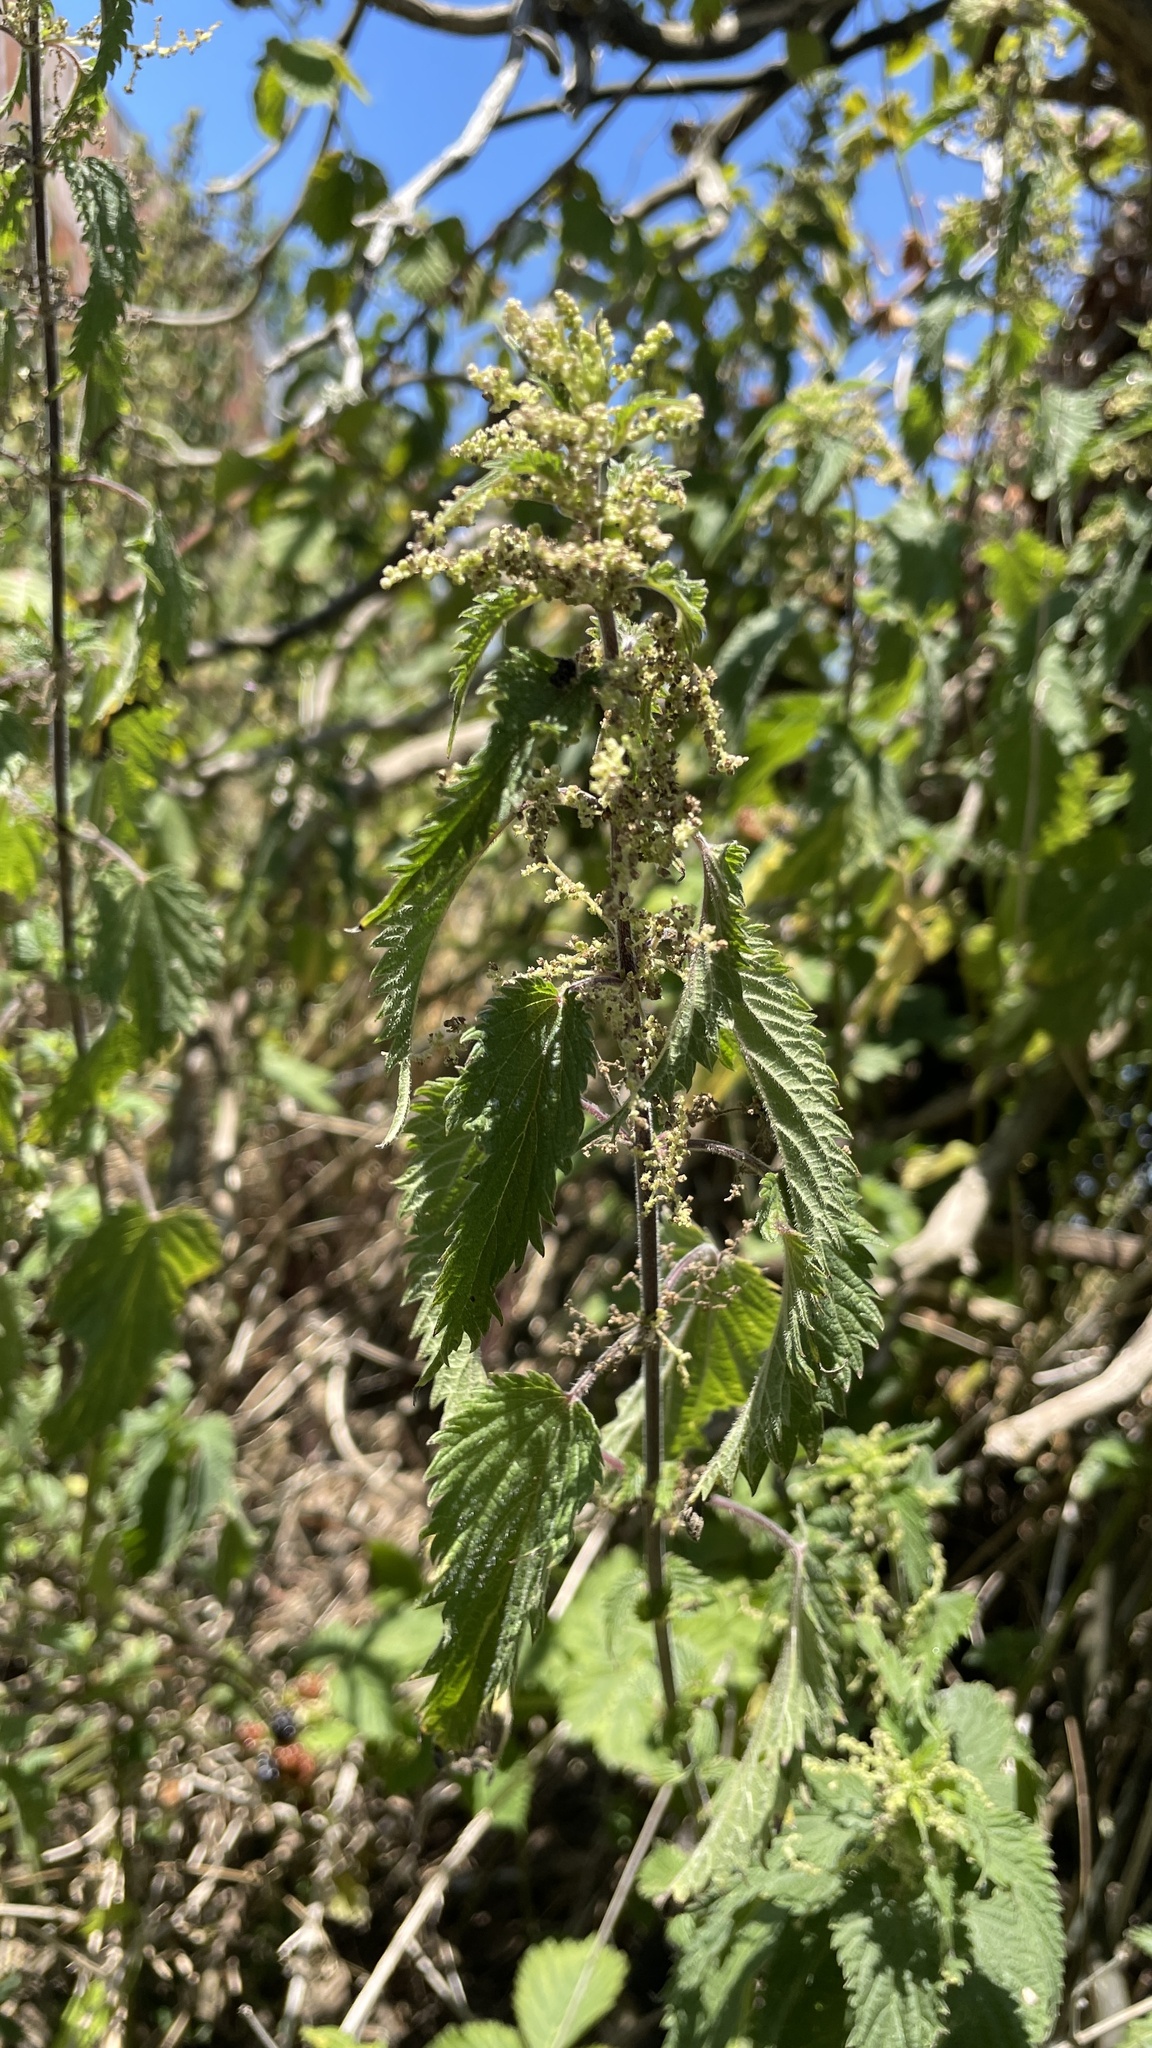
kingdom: Plantae
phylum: Tracheophyta
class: Magnoliopsida
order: Rosales
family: Urticaceae
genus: Urtica
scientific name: Urtica dioica
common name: Common nettle
